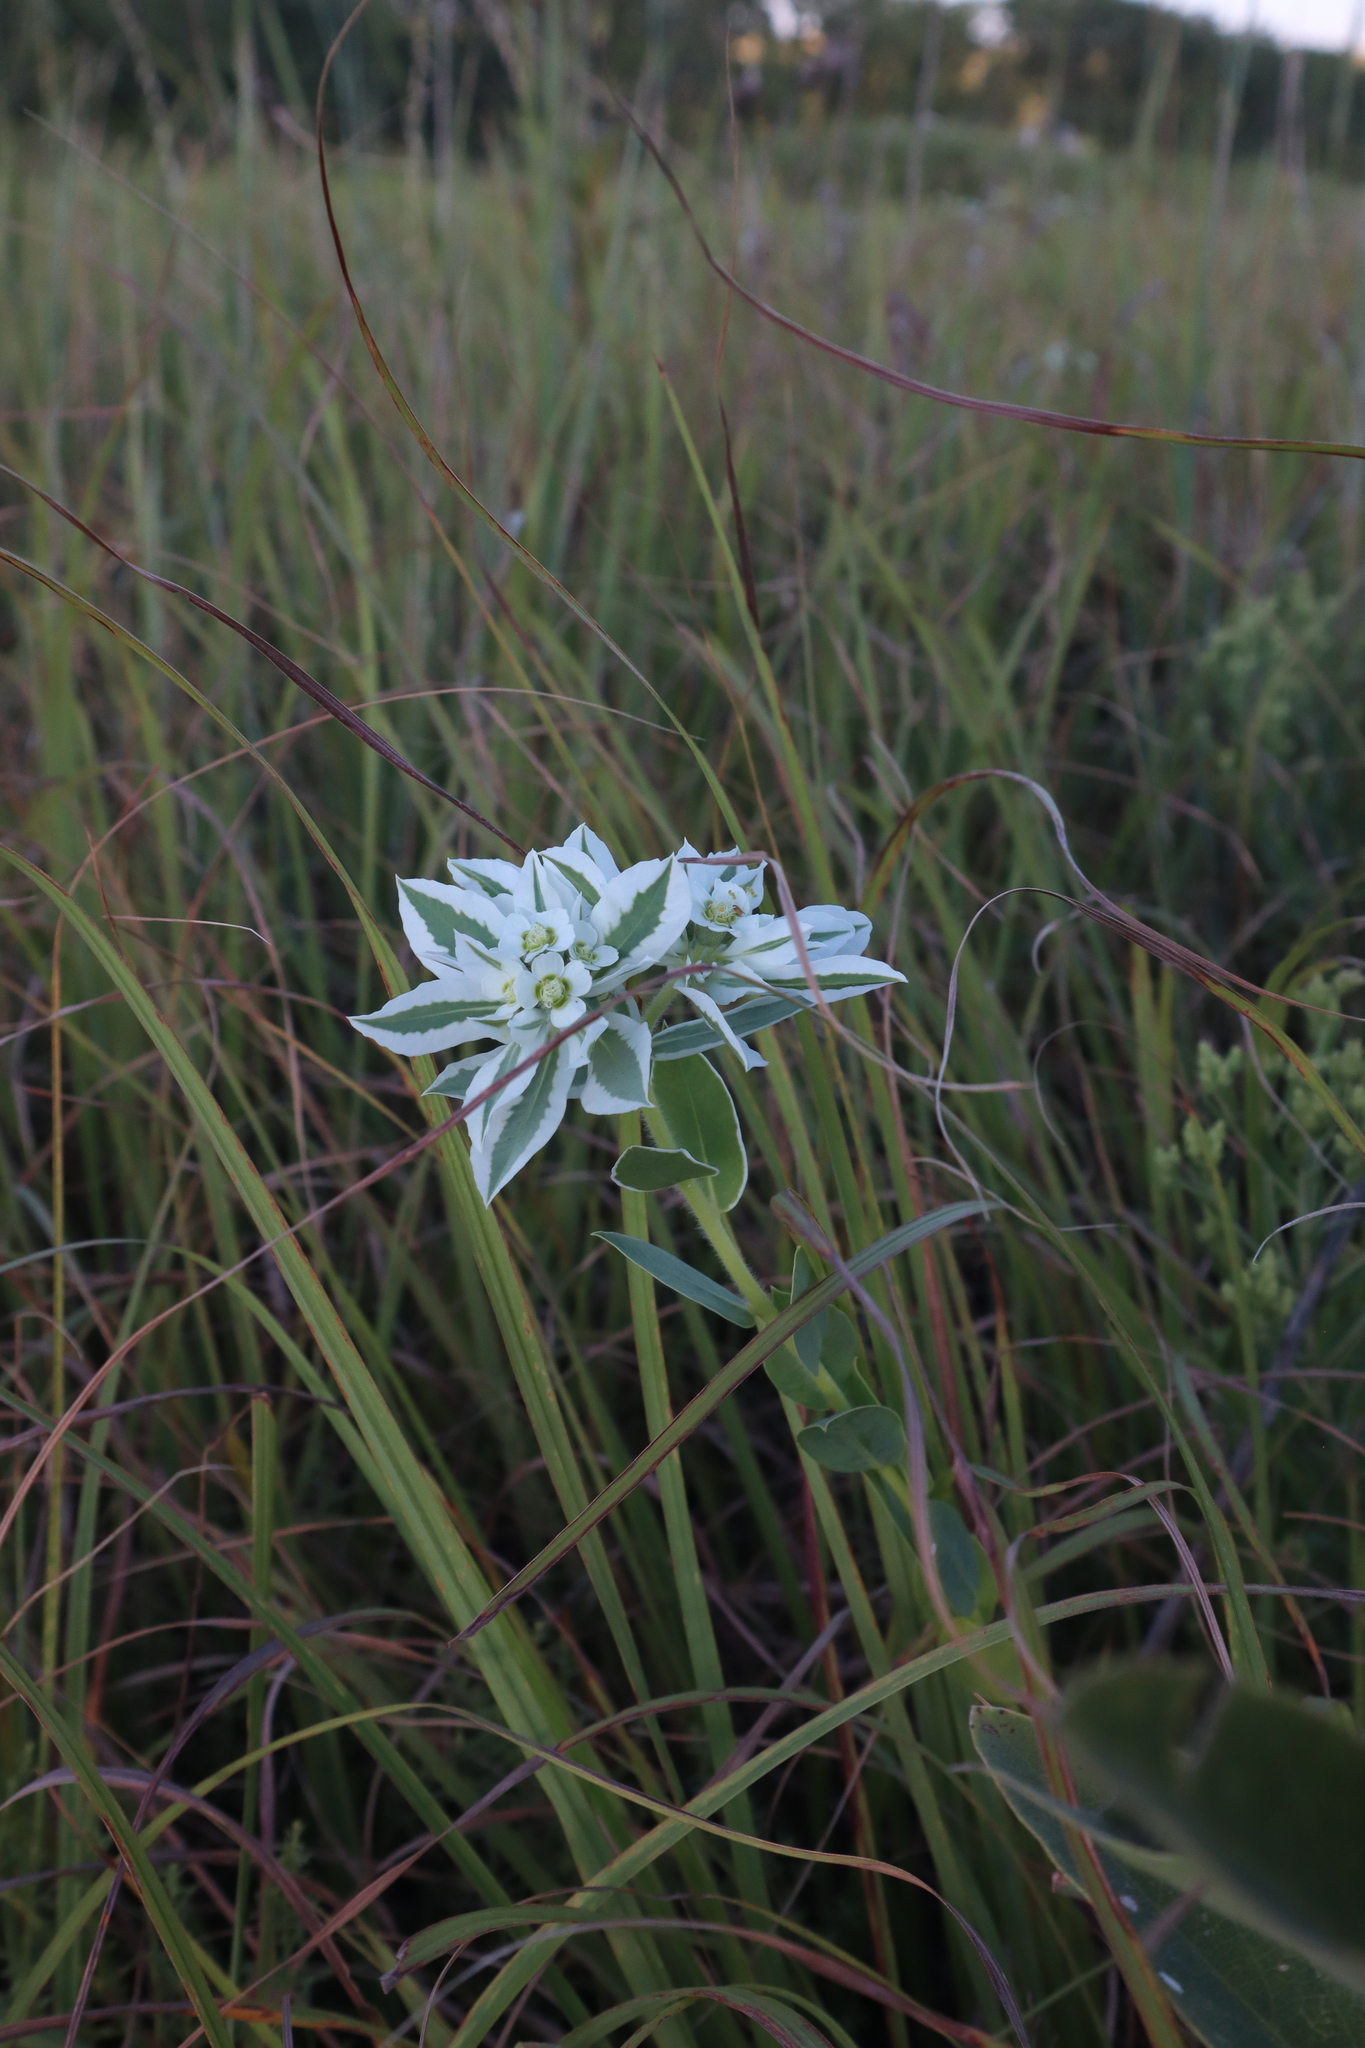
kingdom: Plantae
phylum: Tracheophyta
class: Magnoliopsida
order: Malpighiales
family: Euphorbiaceae
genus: Euphorbia
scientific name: Euphorbia marginata
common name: Ghostweed
